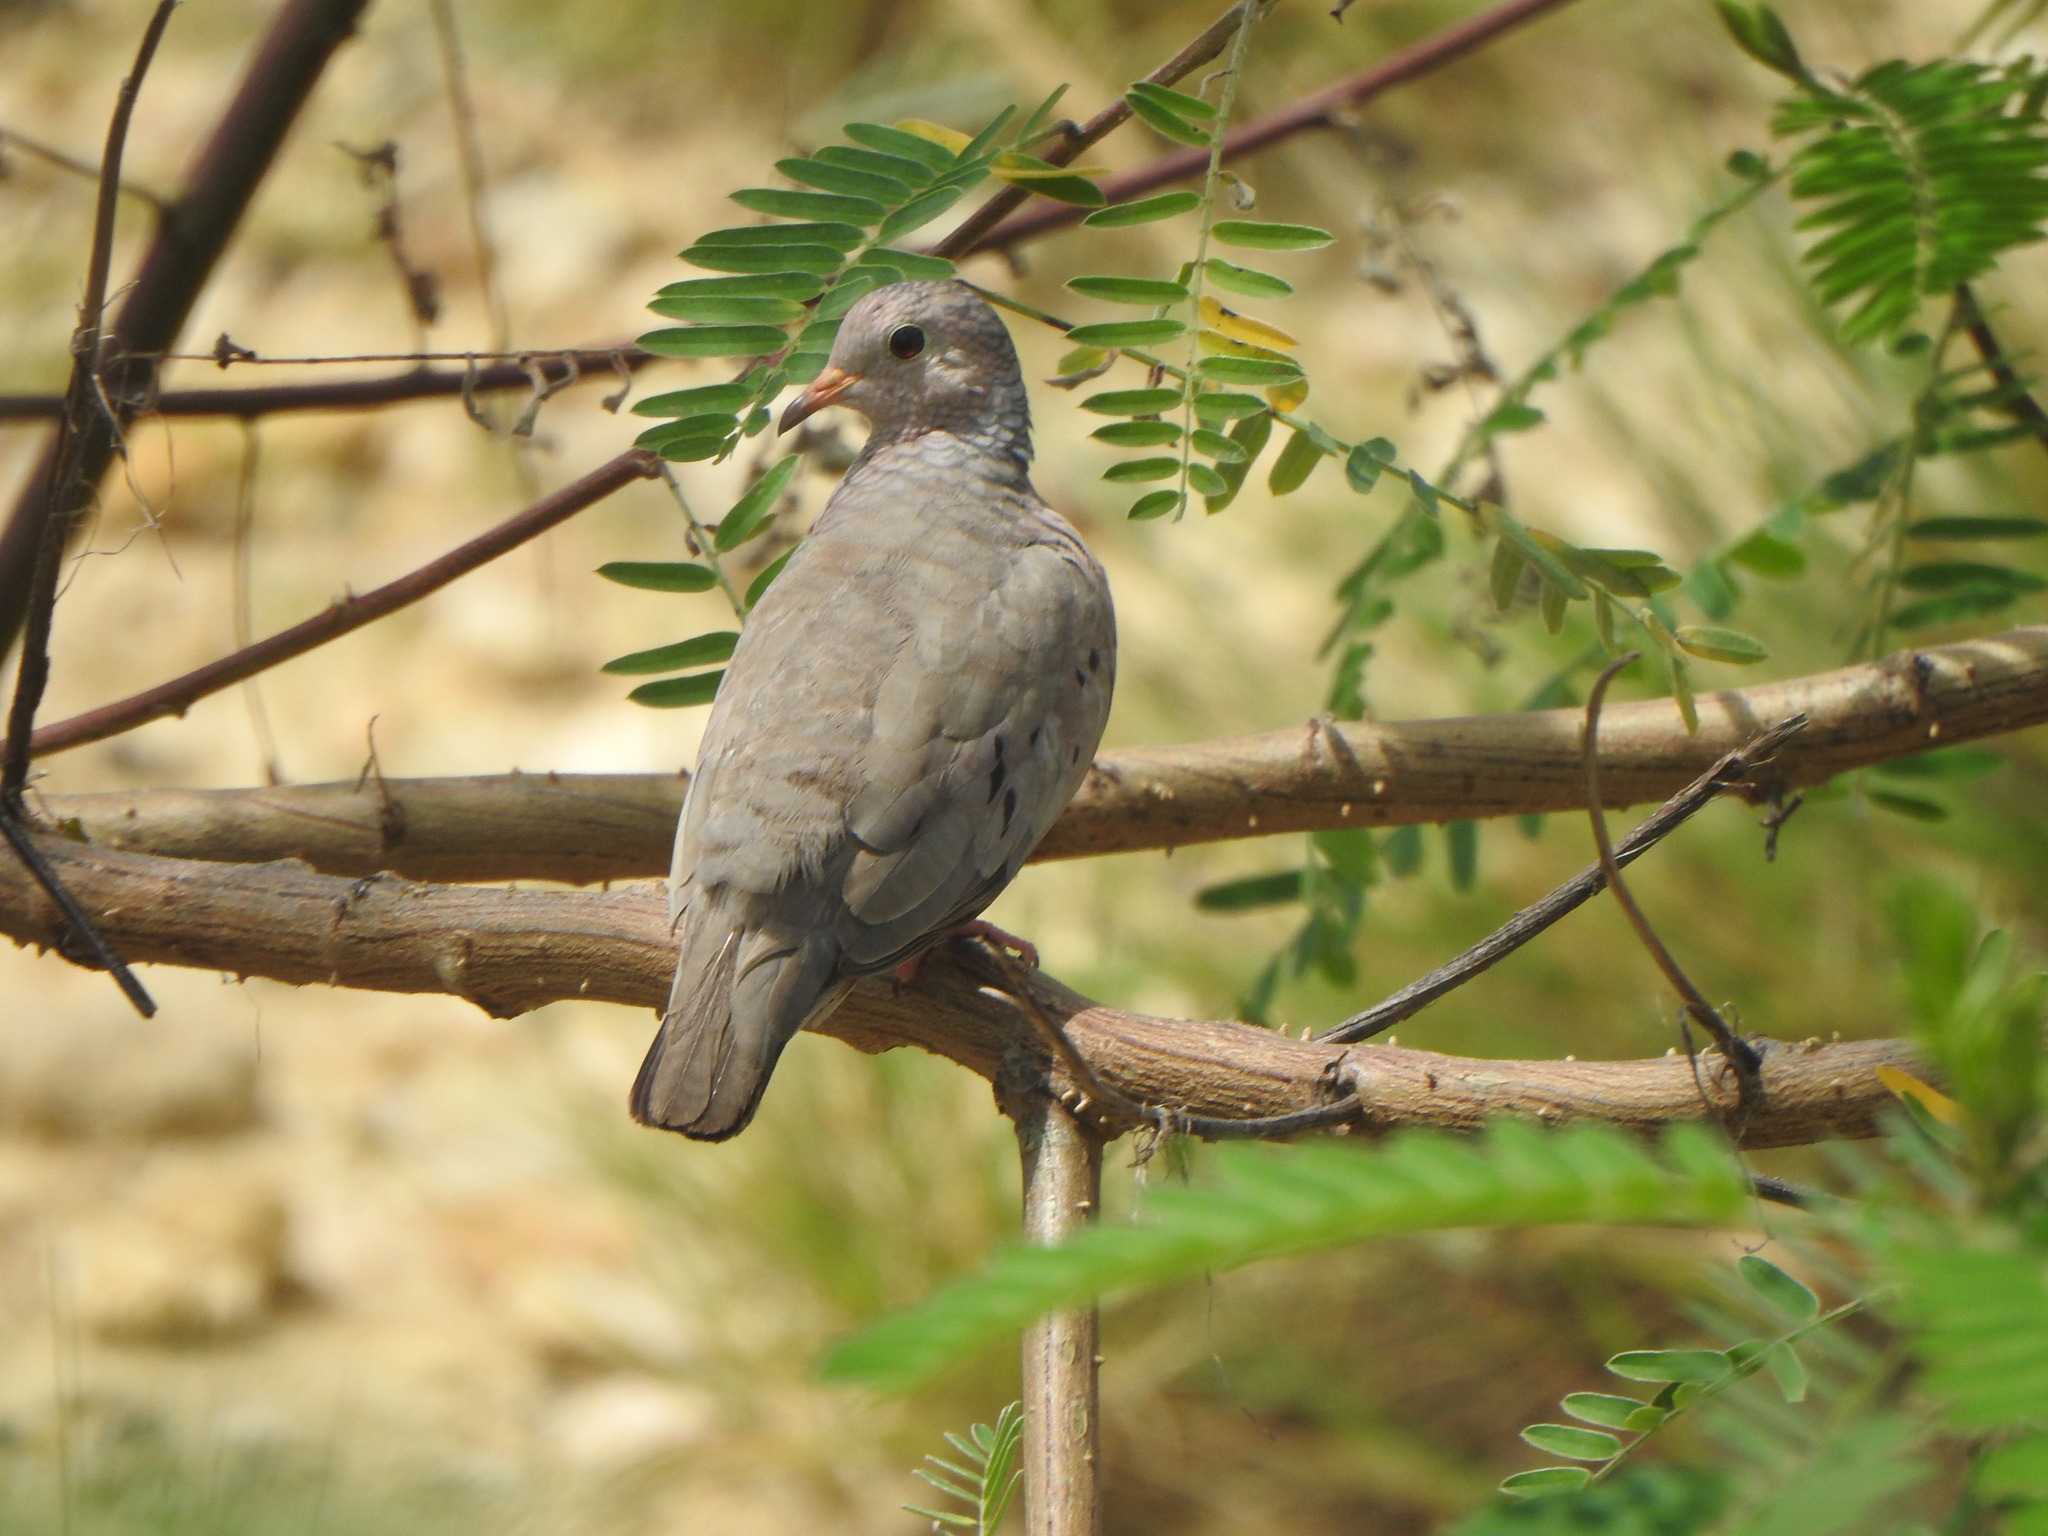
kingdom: Animalia
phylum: Chordata
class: Aves
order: Columbiformes
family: Columbidae
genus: Columbina
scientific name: Columbina passerina
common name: Common ground-dove
